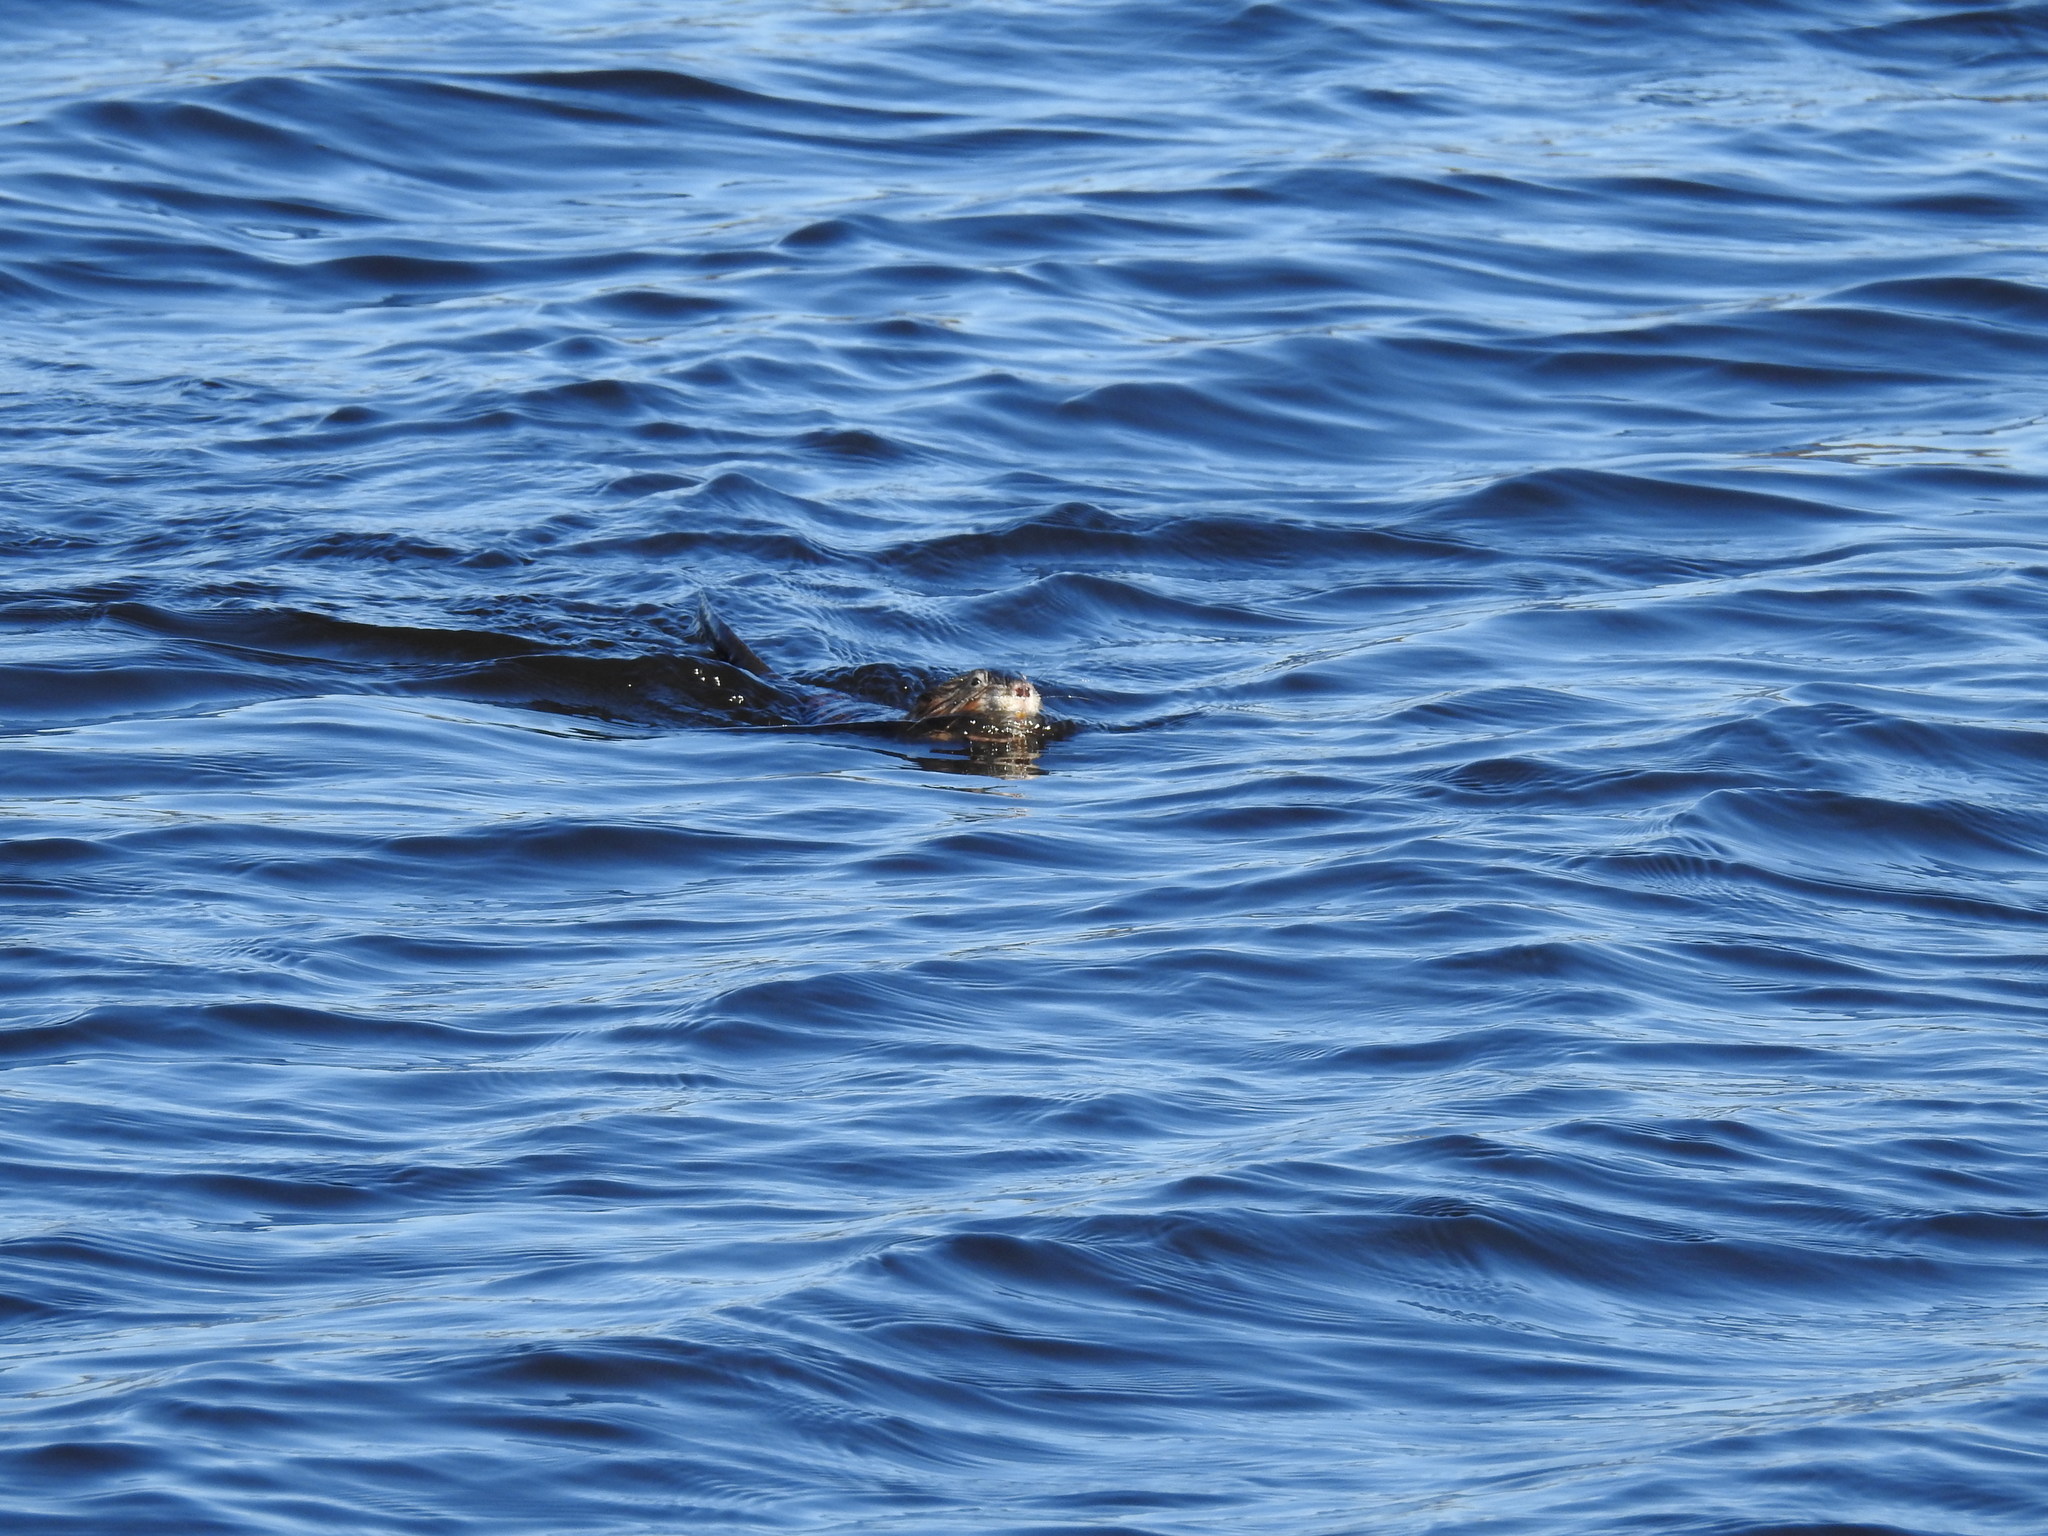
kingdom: Animalia
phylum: Chordata
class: Mammalia
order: Rodentia
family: Cricetidae
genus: Ondatra
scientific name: Ondatra zibethicus
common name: Muskrat
